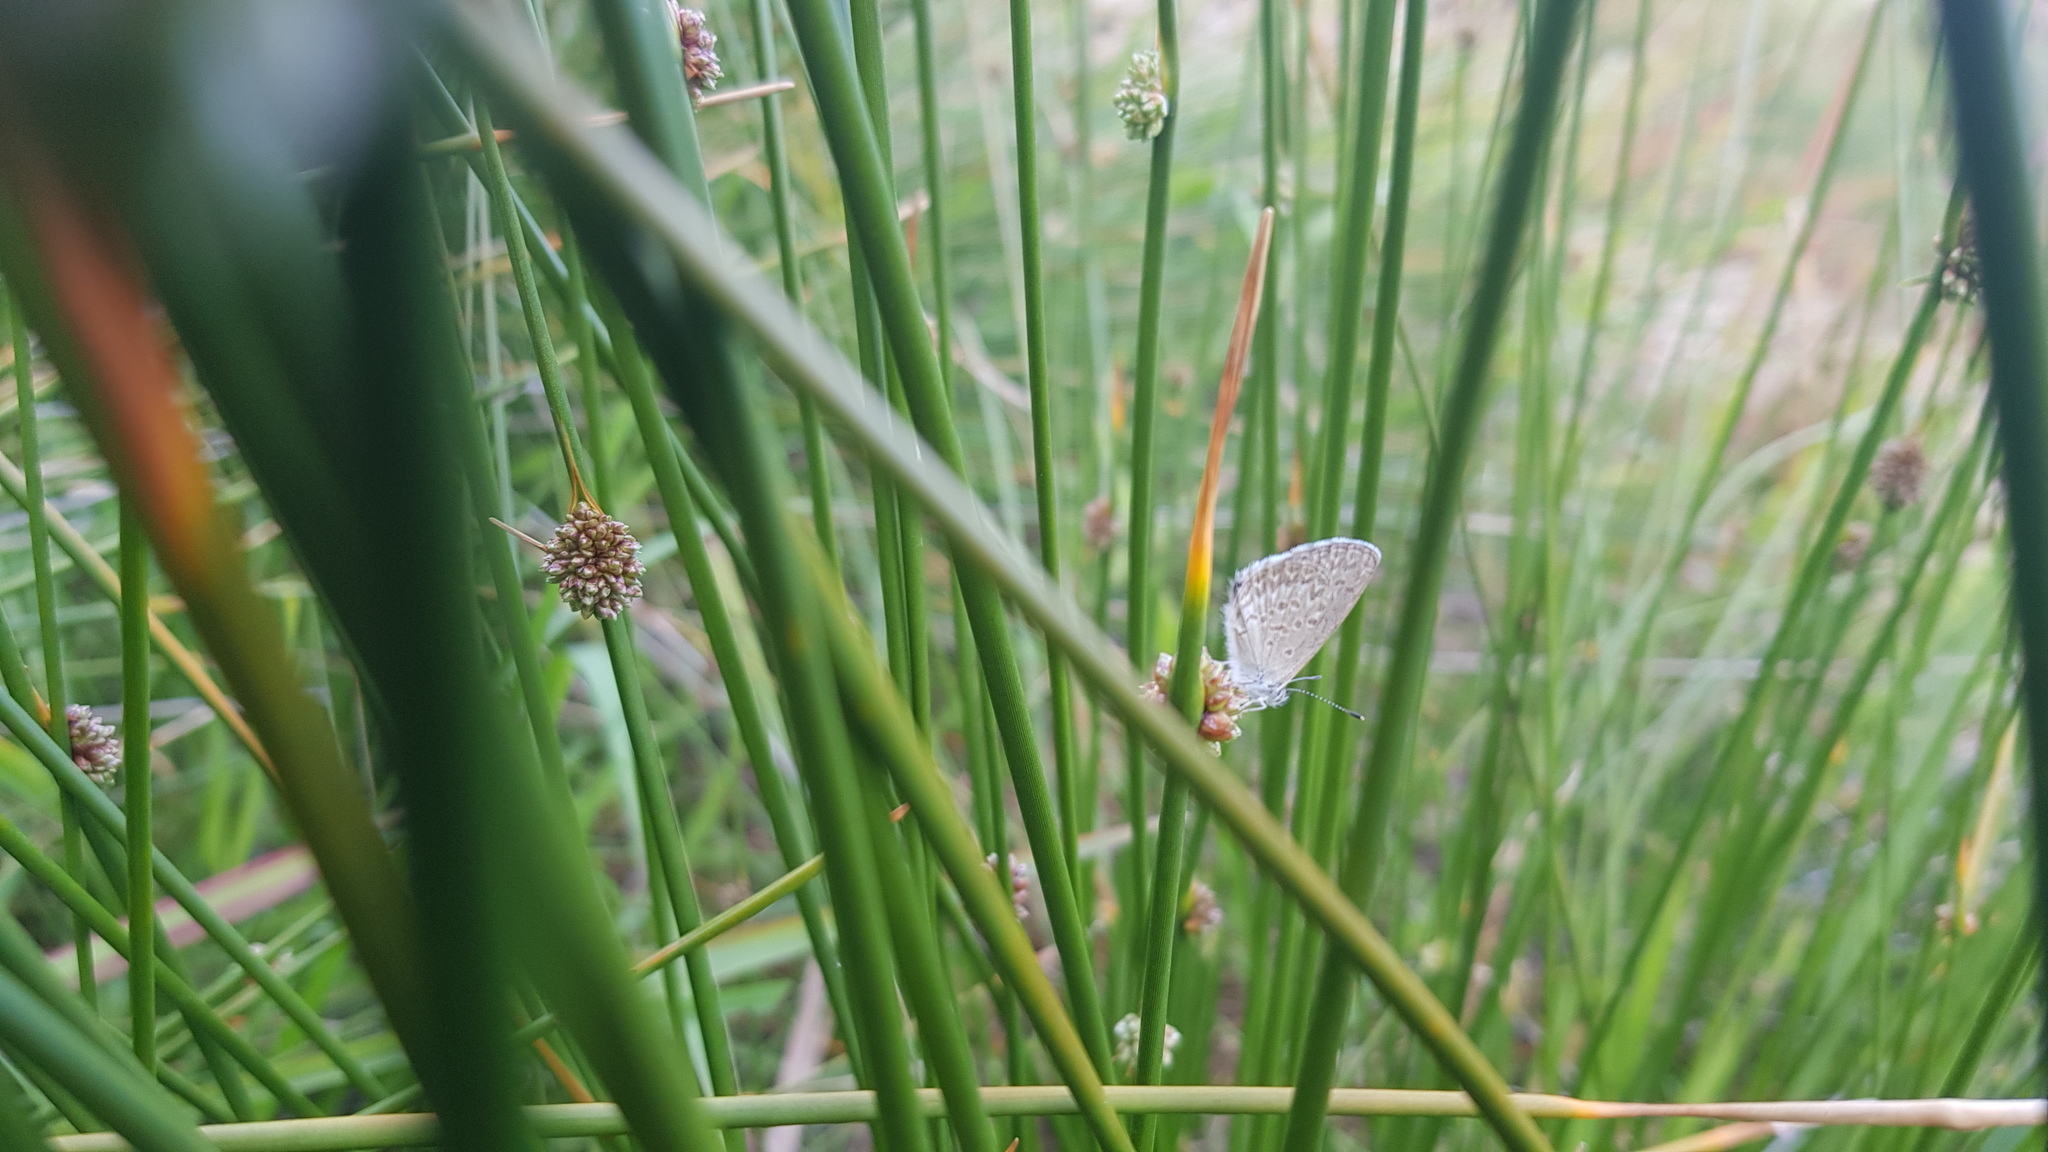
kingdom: Animalia
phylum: Arthropoda
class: Insecta
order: Lepidoptera
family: Lycaenidae
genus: Zizina
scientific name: Zizina labradus
